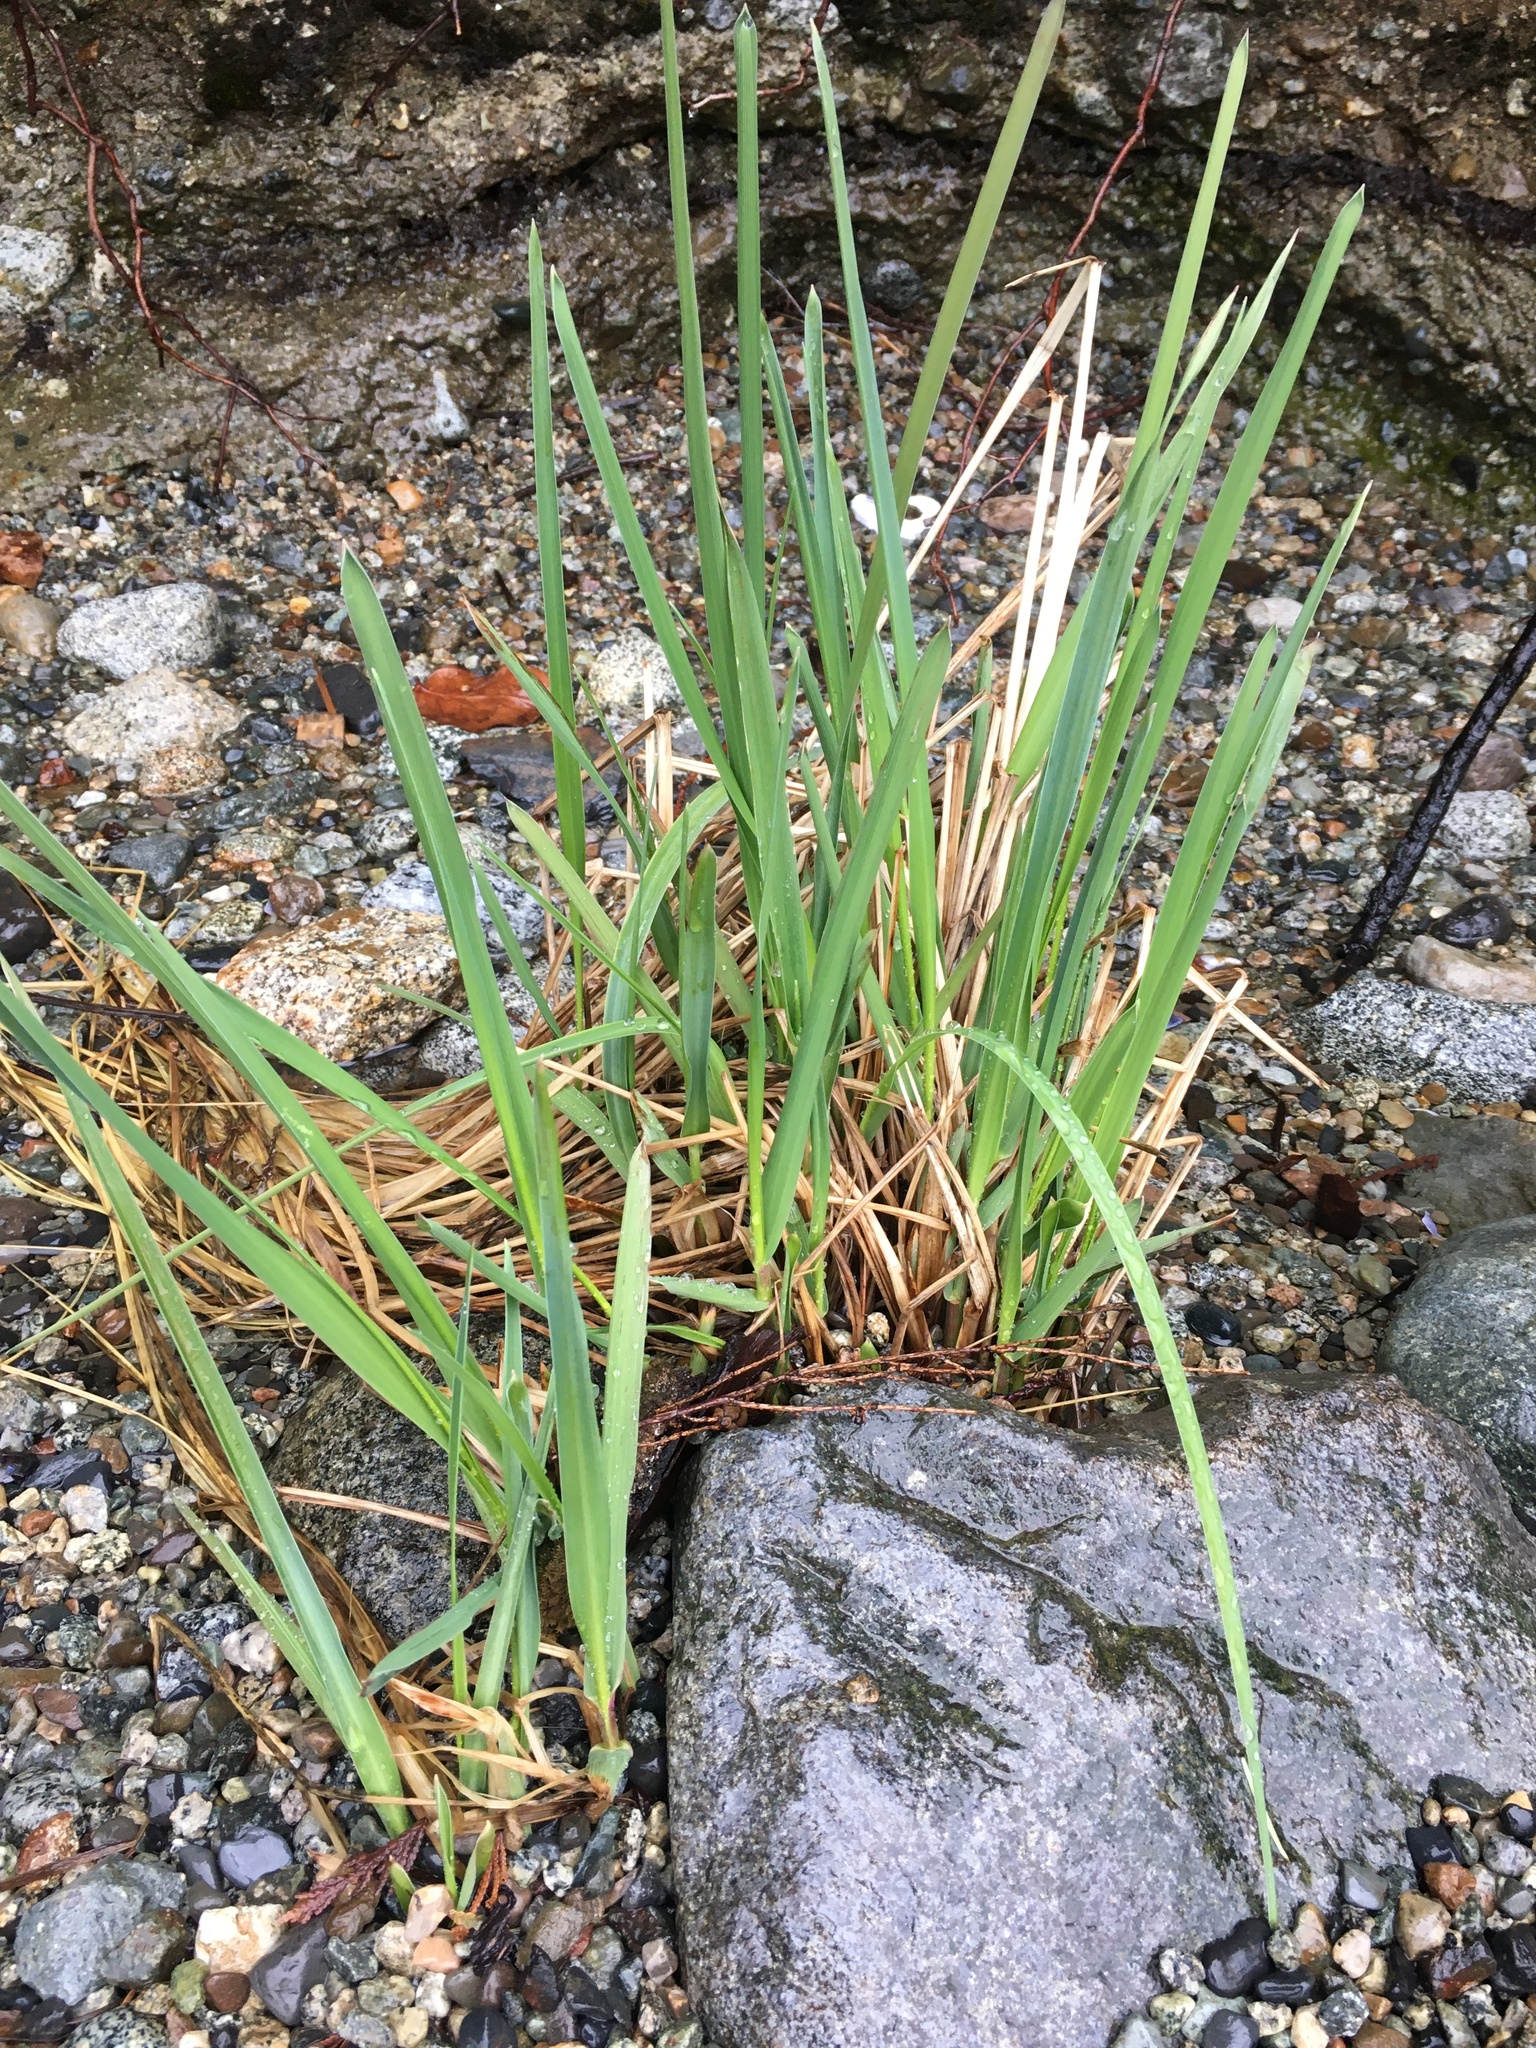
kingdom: Plantae
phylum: Tracheophyta
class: Liliopsida
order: Poales
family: Poaceae
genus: Leymus
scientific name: Leymus mollis
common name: American dune grass
